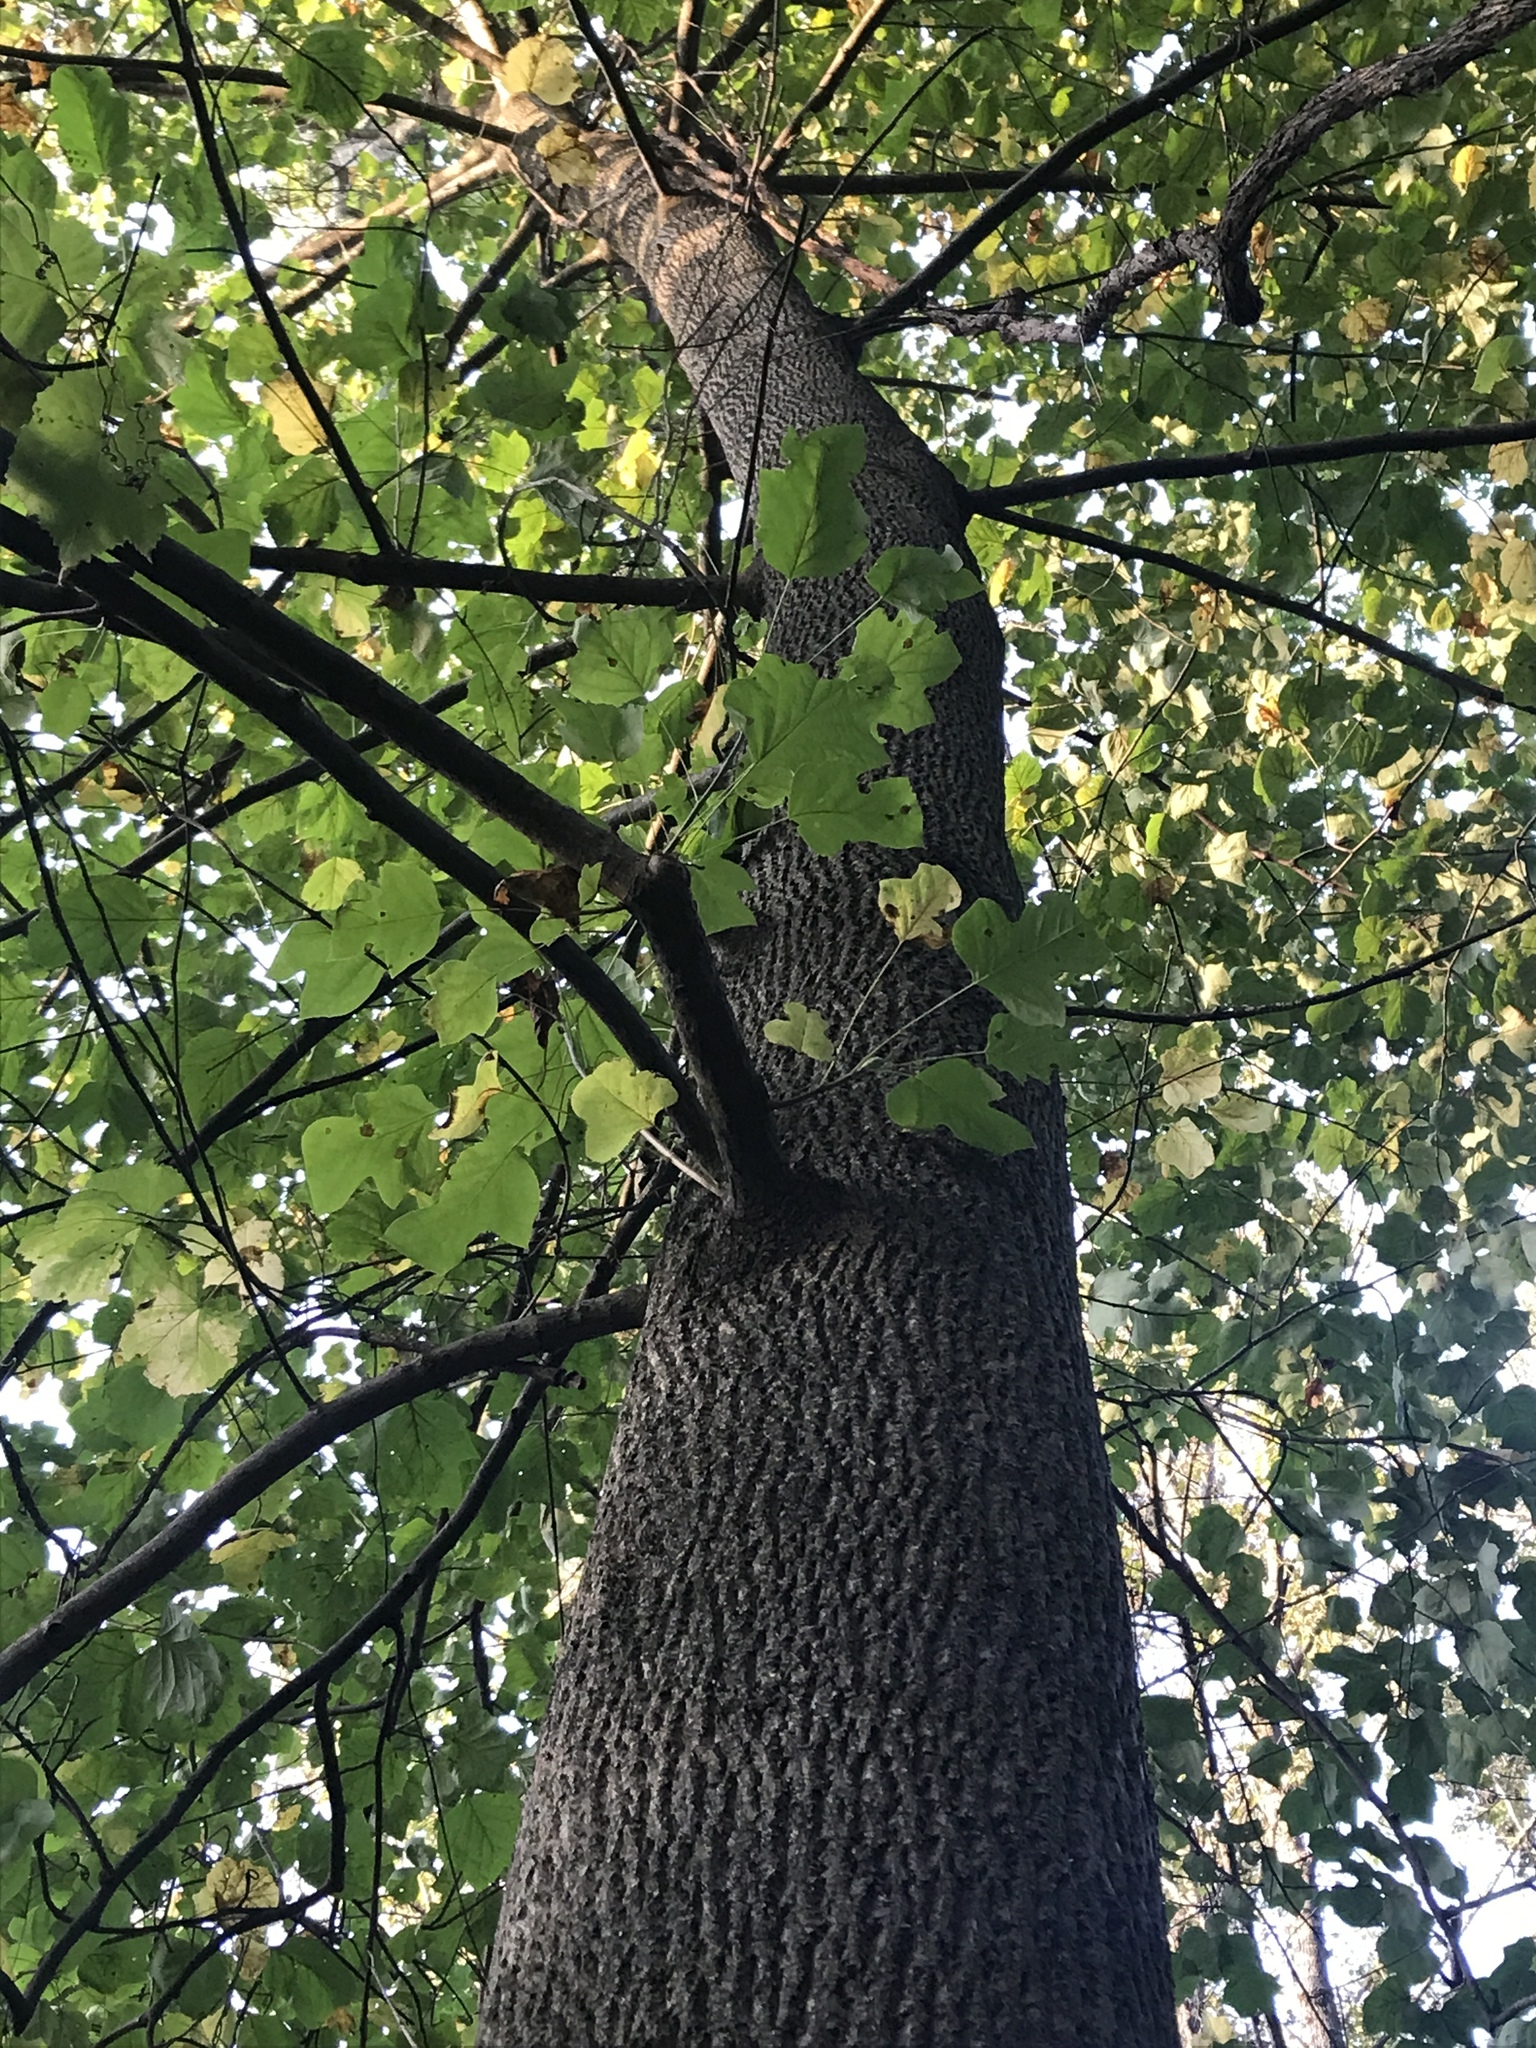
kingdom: Plantae
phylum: Tracheophyta
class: Magnoliopsida
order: Magnoliales
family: Magnoliaceae
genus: Liriodendron
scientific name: Liriodendron tulipifera
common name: Tulip tree
